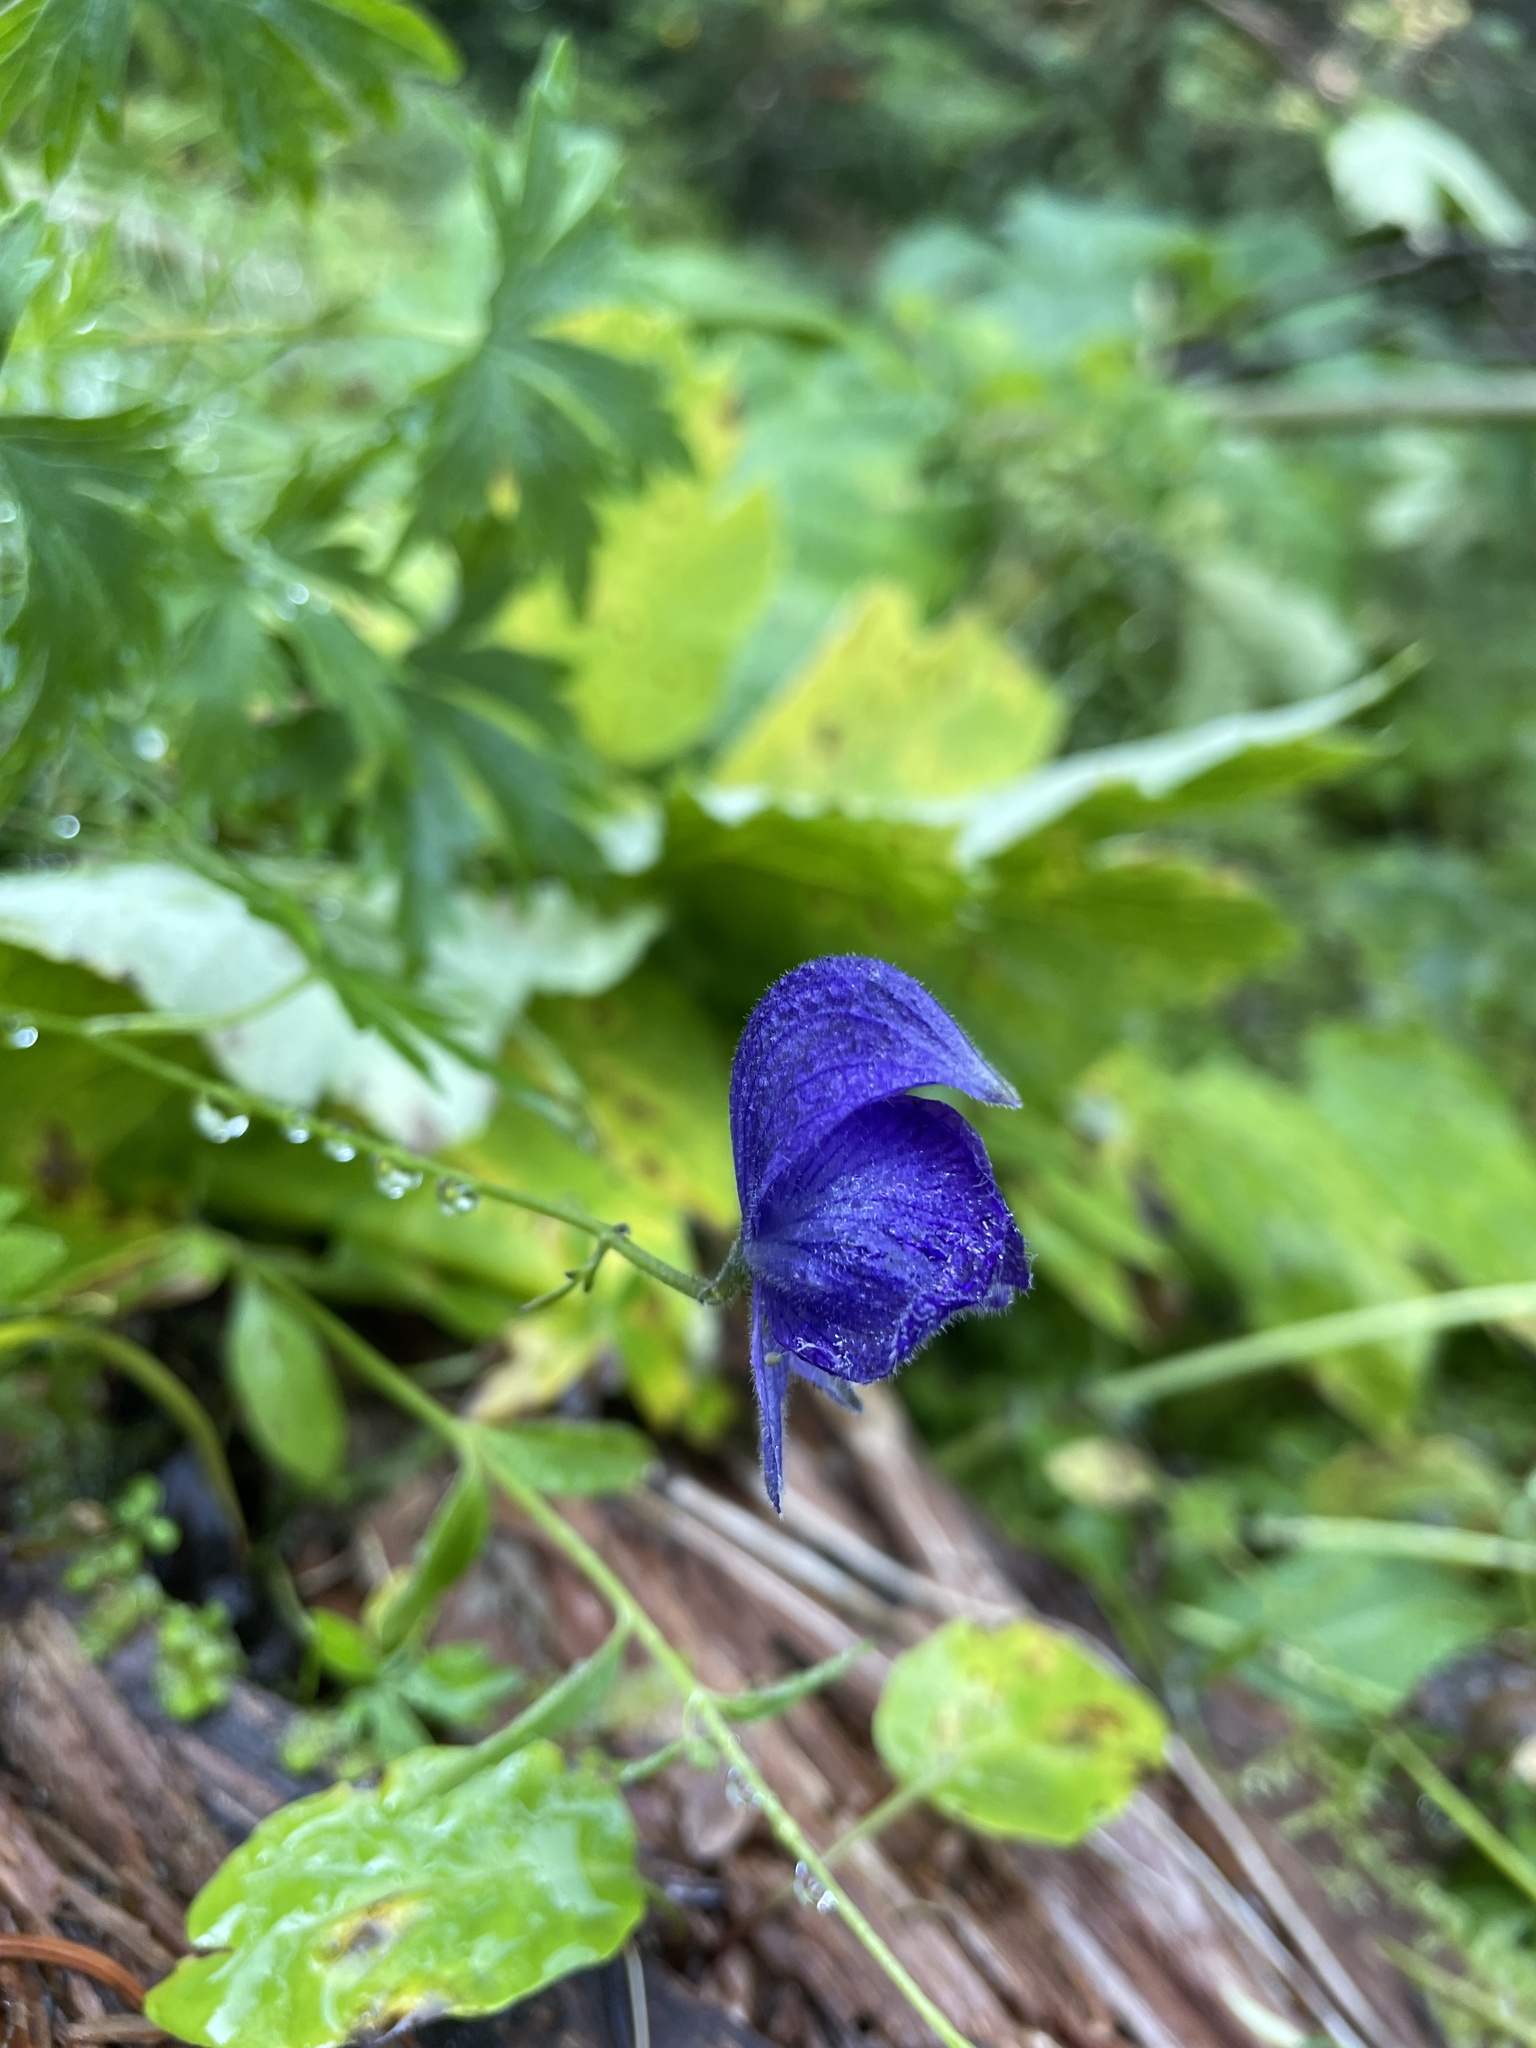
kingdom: Plantae
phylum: Tracheophyta
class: Magnoliopsida
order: Ranunculales
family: Ranunculaceae
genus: Aconitum
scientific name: Aconitum delphiniifolium
